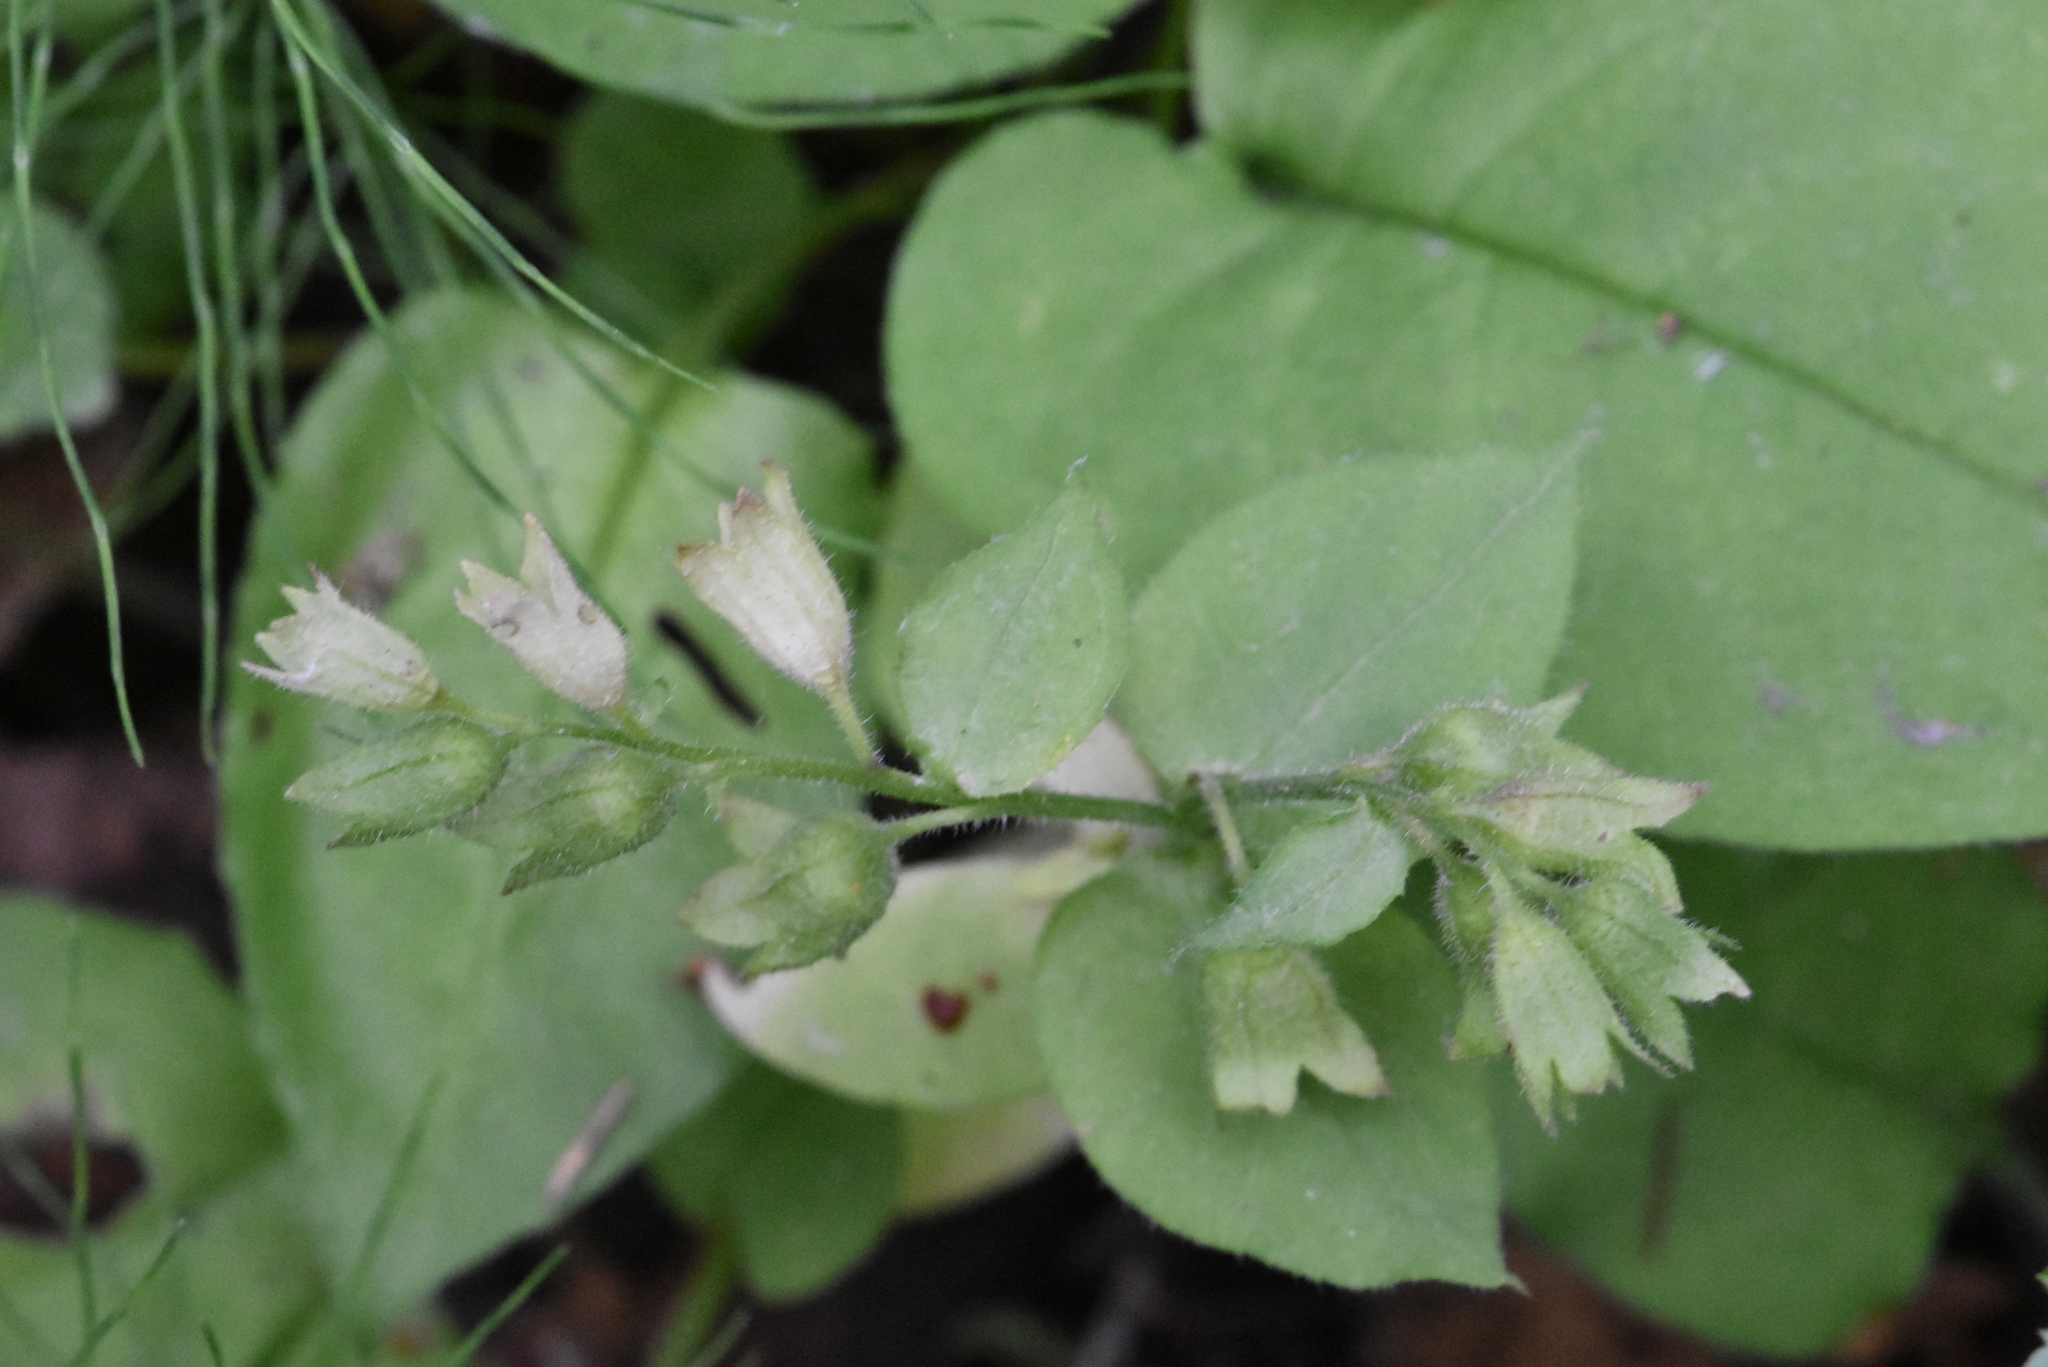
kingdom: Plantae
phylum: Tracheophyta
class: Magnoliopsida
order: Boraginales
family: Boraginaceae
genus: Pulmonaria
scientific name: Pulmonaria obscura
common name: Suffolk lungwort
